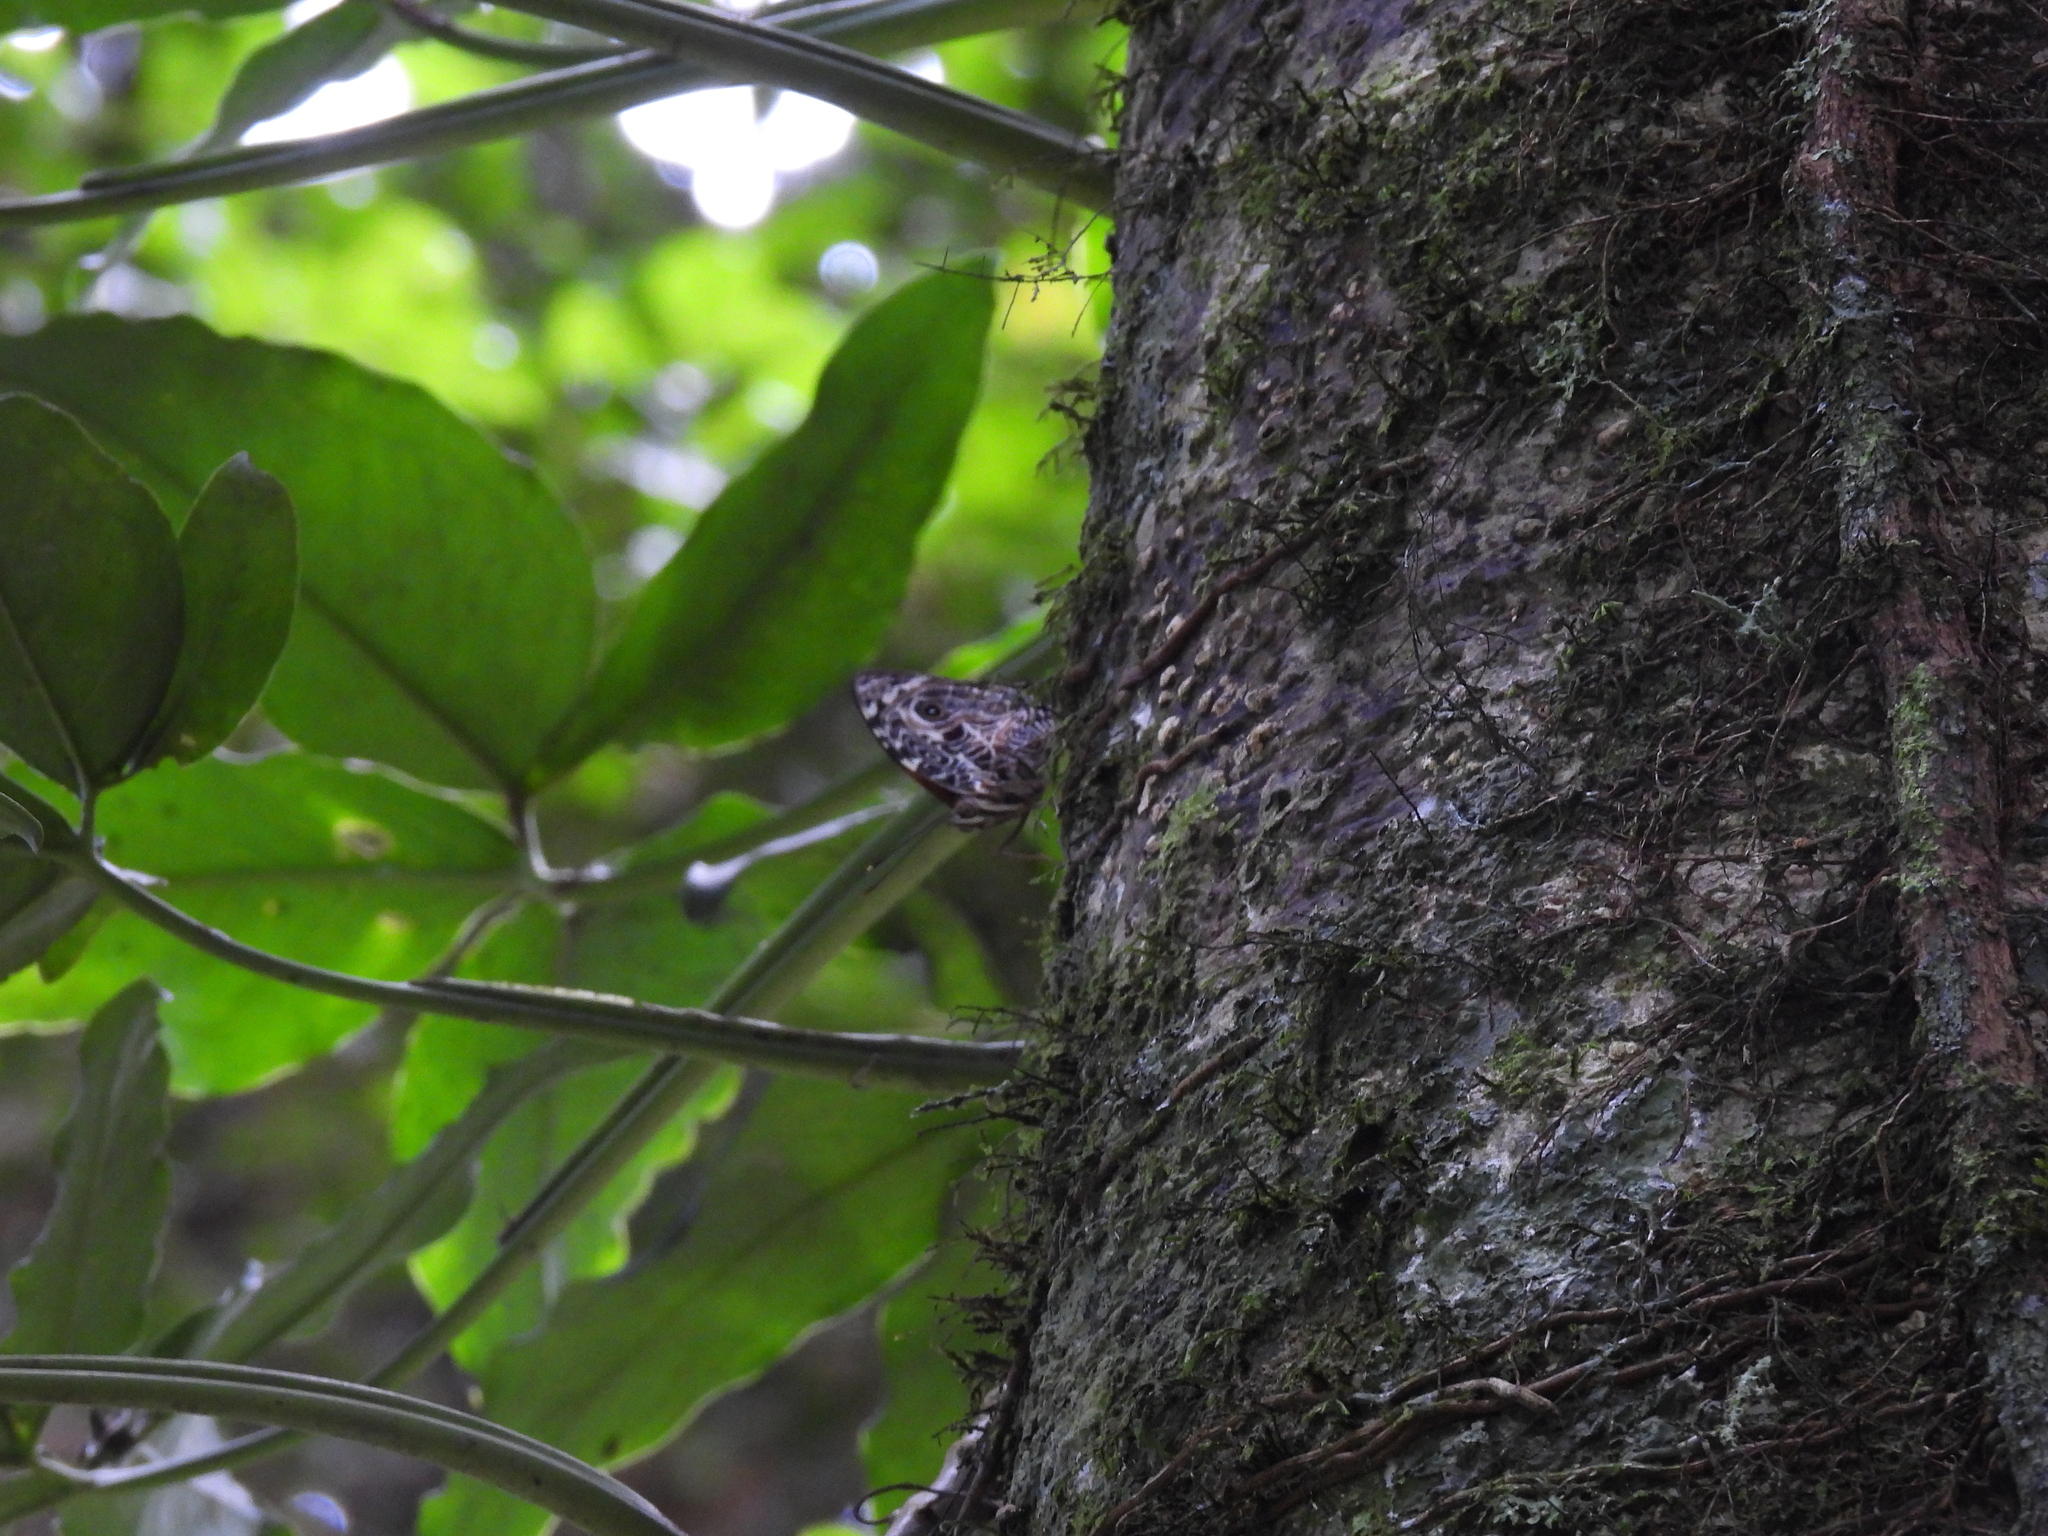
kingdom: Animalia
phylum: Arthropoda
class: Insecta
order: Lepidoptera
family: Nymphalidae
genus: Smyrna
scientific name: Smyrna blomfildia
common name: Blomfild's beauty
